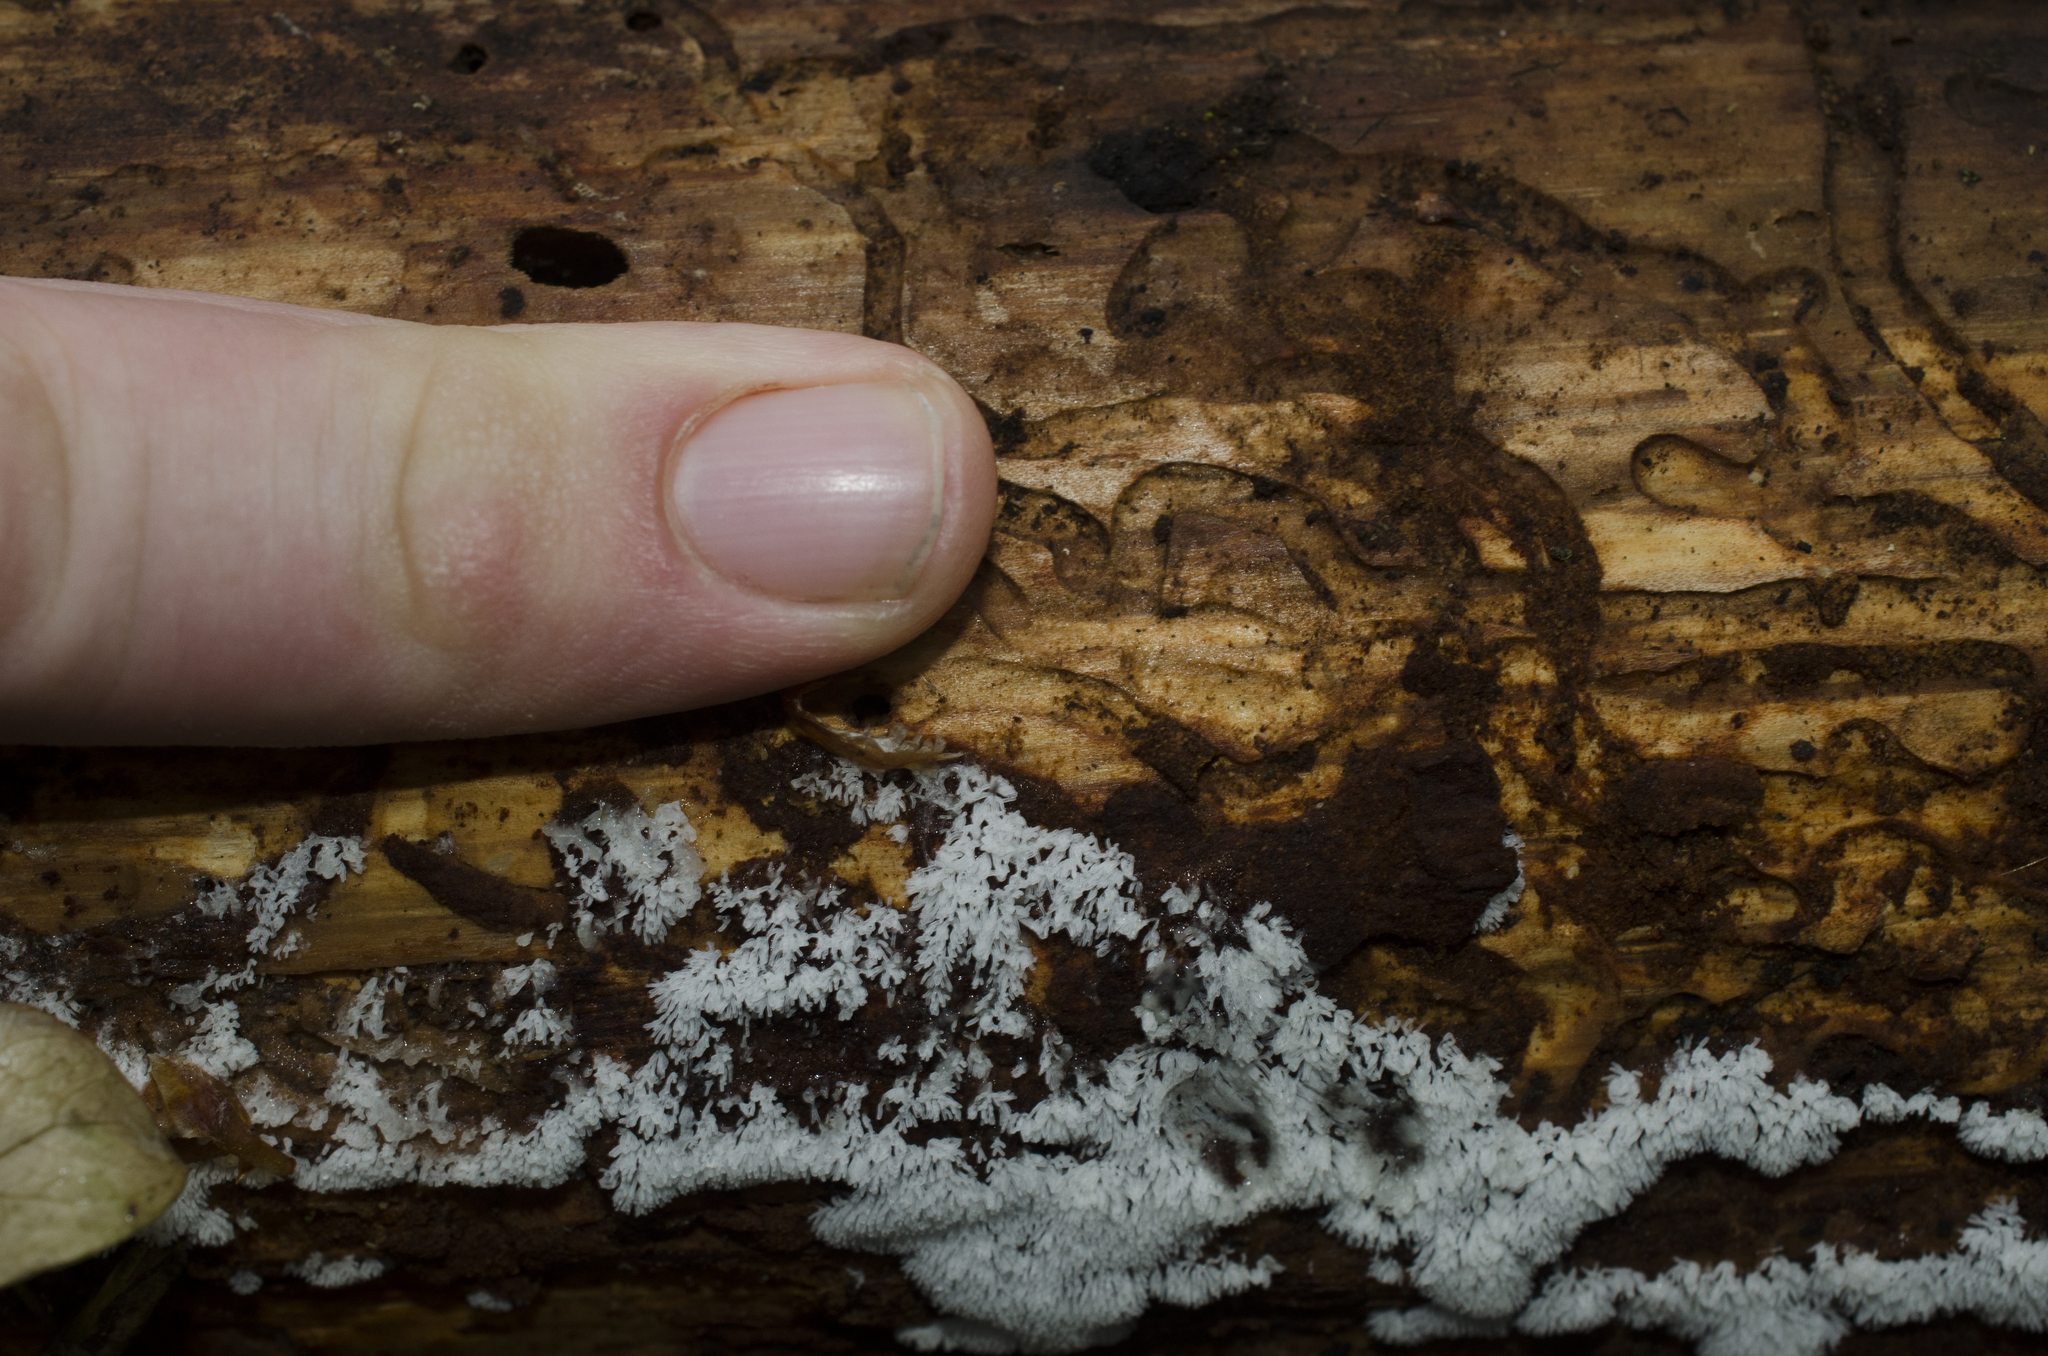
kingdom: Protozoa
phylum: Mycetozoa
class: Protosteliomycetes
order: Ceratiomyxales
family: Ceratiomyxaceae
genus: Ceratiomyxa
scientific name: Ceratiomyxa fruticulosa
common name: Honeycomb coral slime mold
